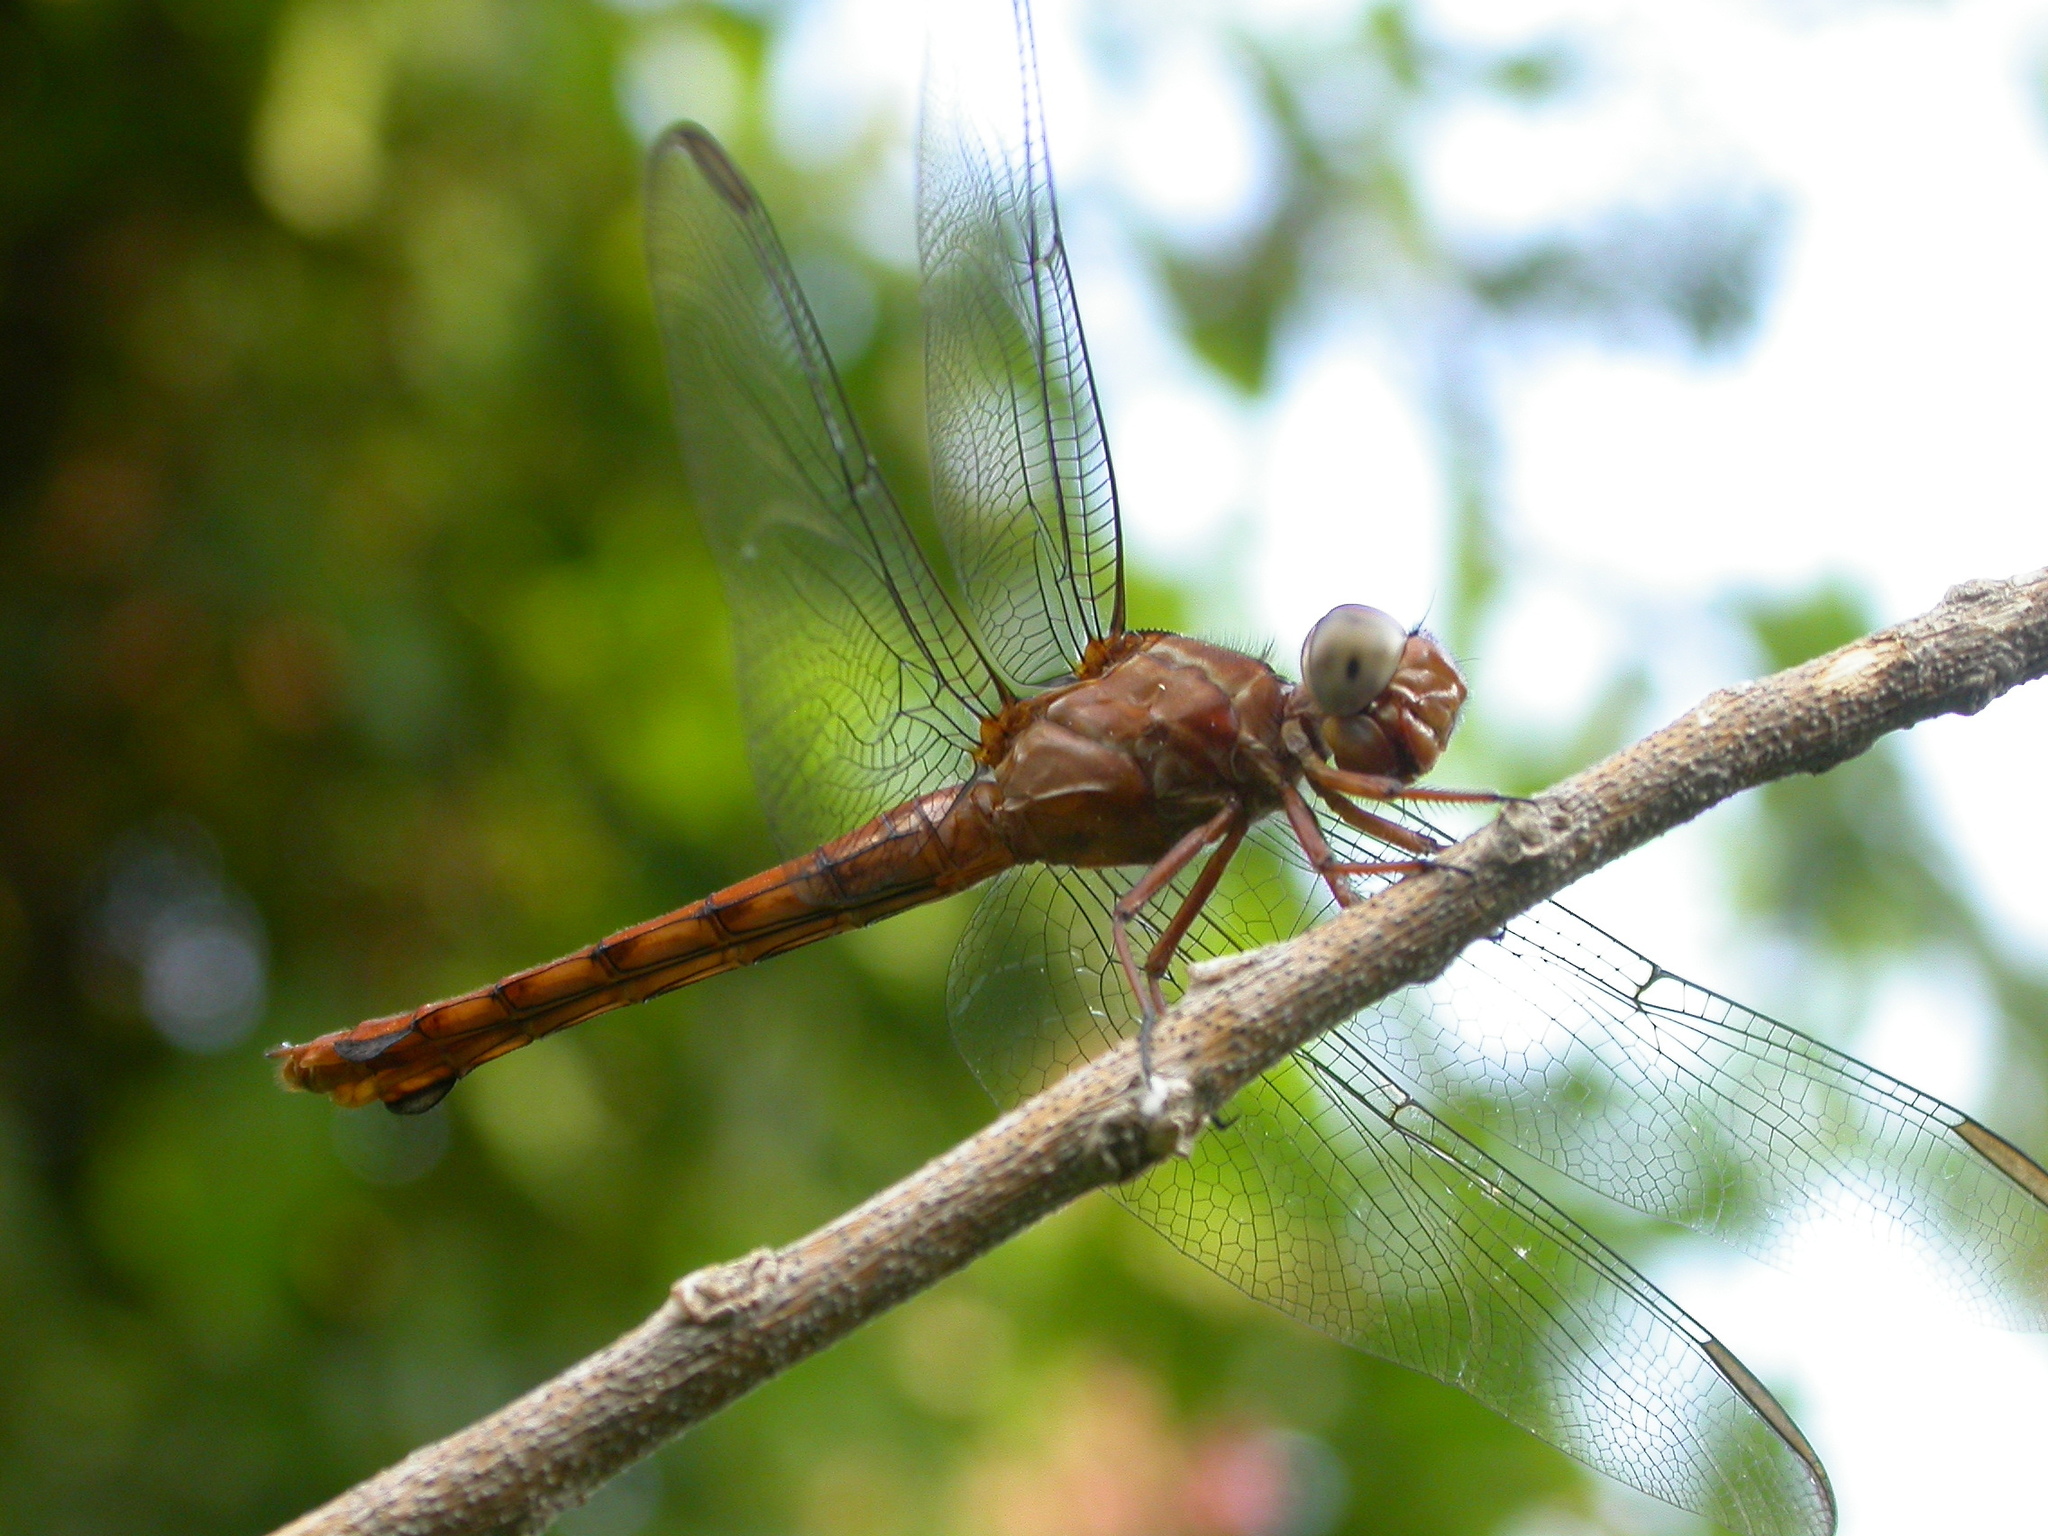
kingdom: Animalia
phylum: Arthropoda
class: Insecta
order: Odonata
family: Libellulidae
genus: Orthemis
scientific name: Orthemis discolor
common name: Carmine skimmer
